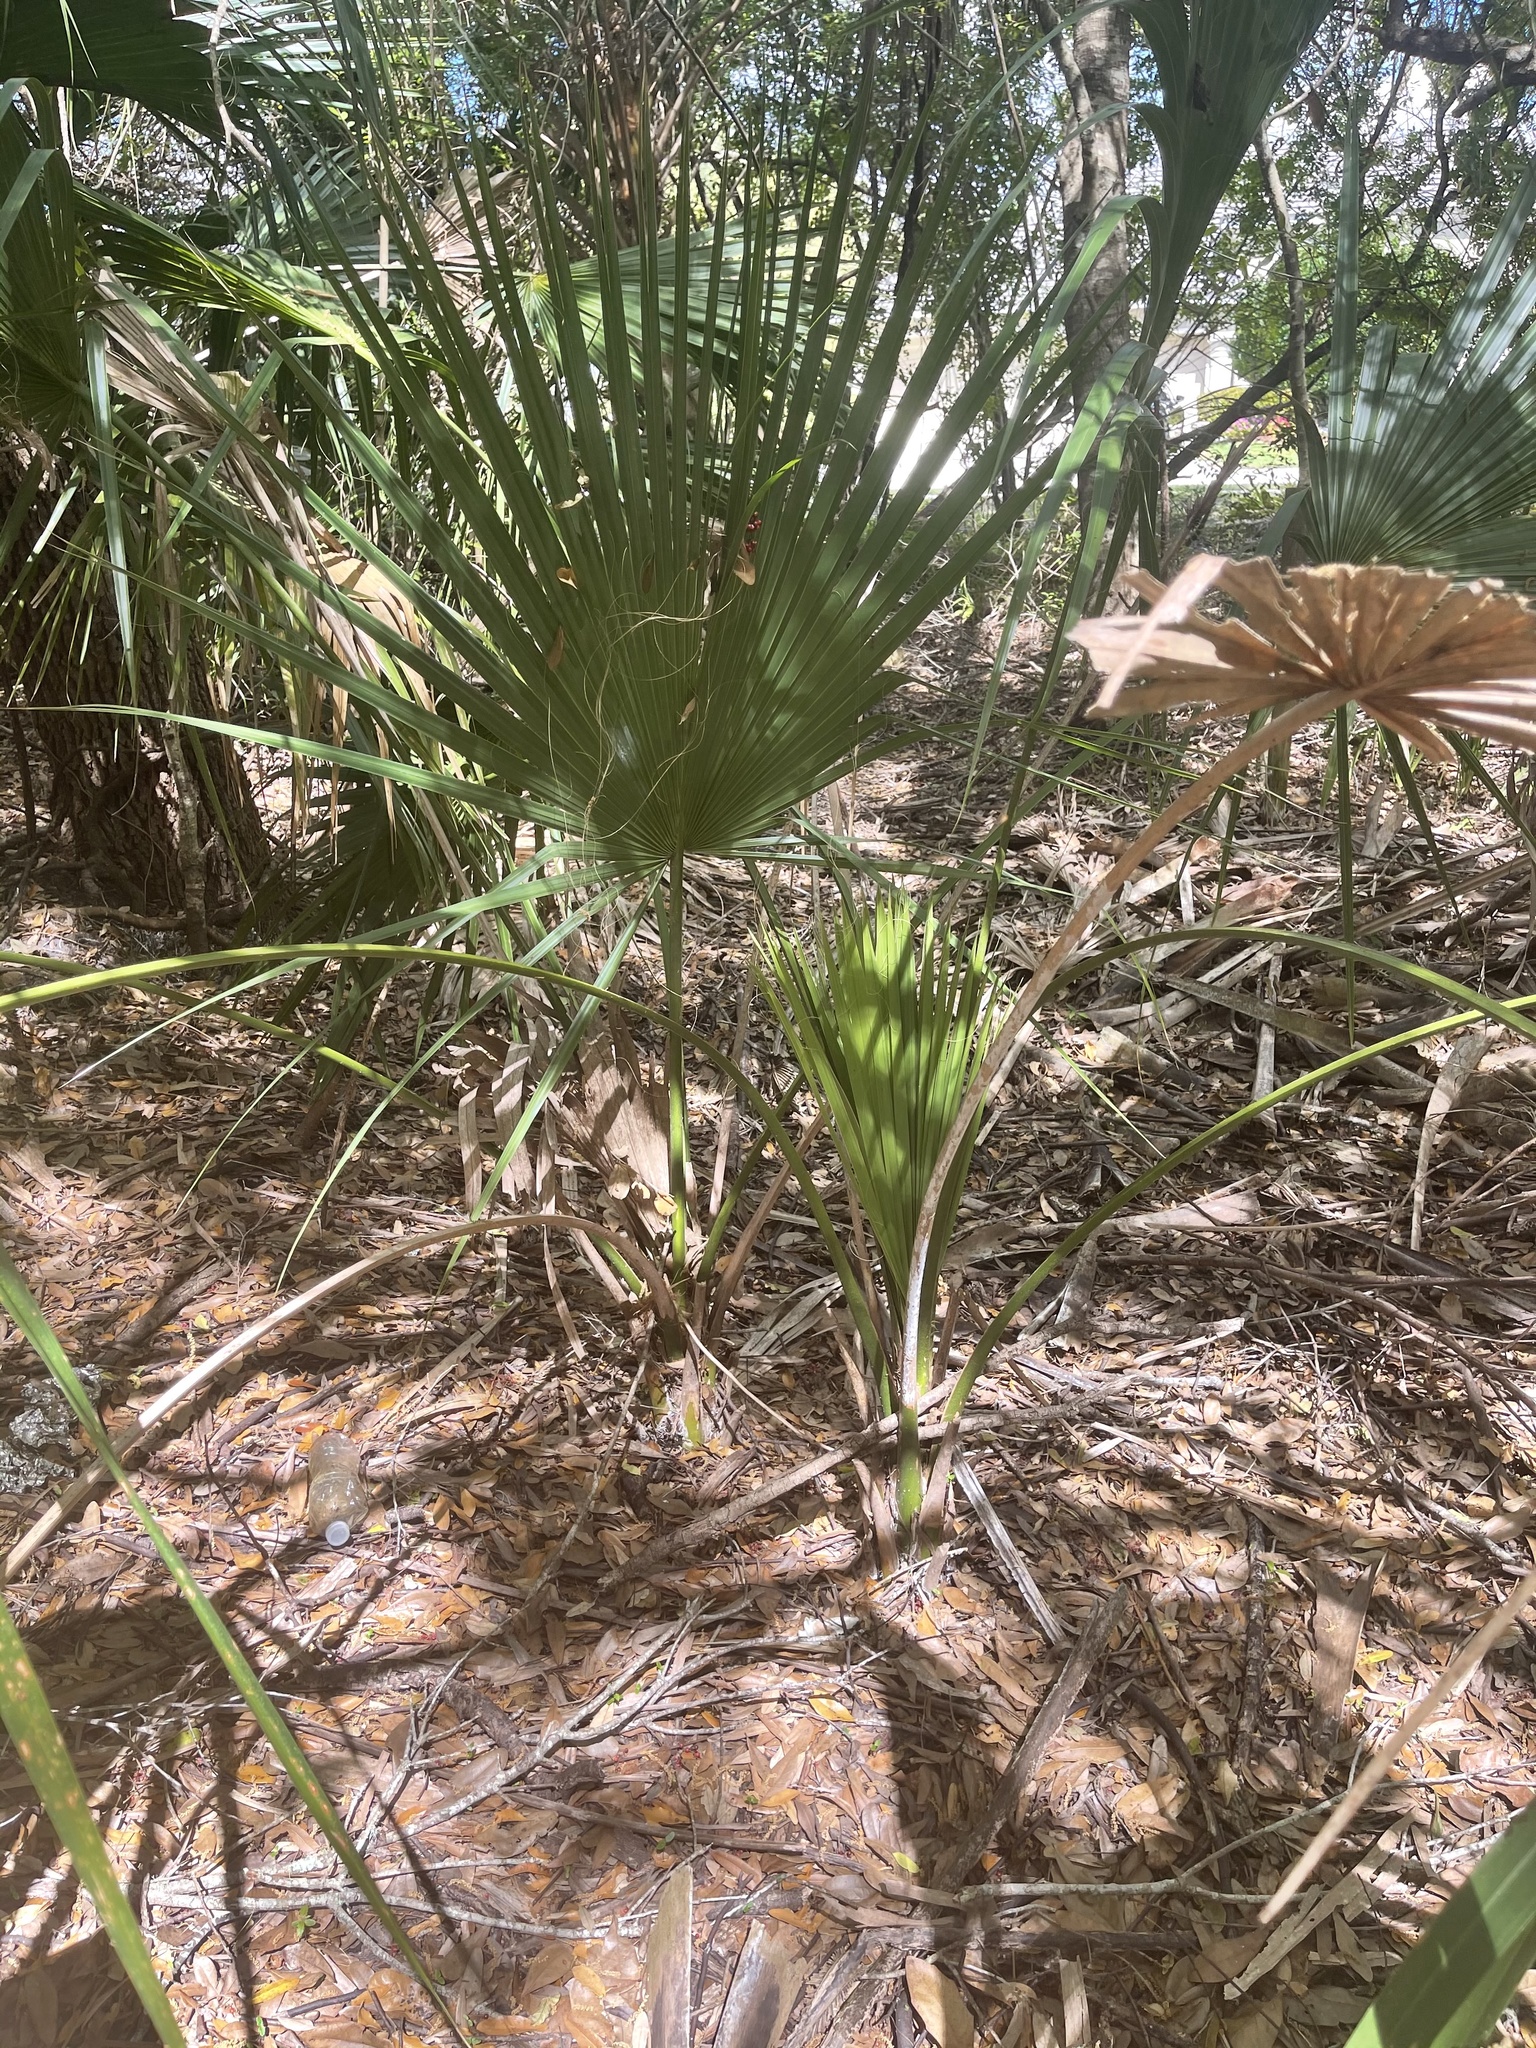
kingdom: Plantae
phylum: Tracheophyta
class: Liliopsida
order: Arecales
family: Arecaceae
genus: Sabal
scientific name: Sabal palmetto
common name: Blue palmetto
